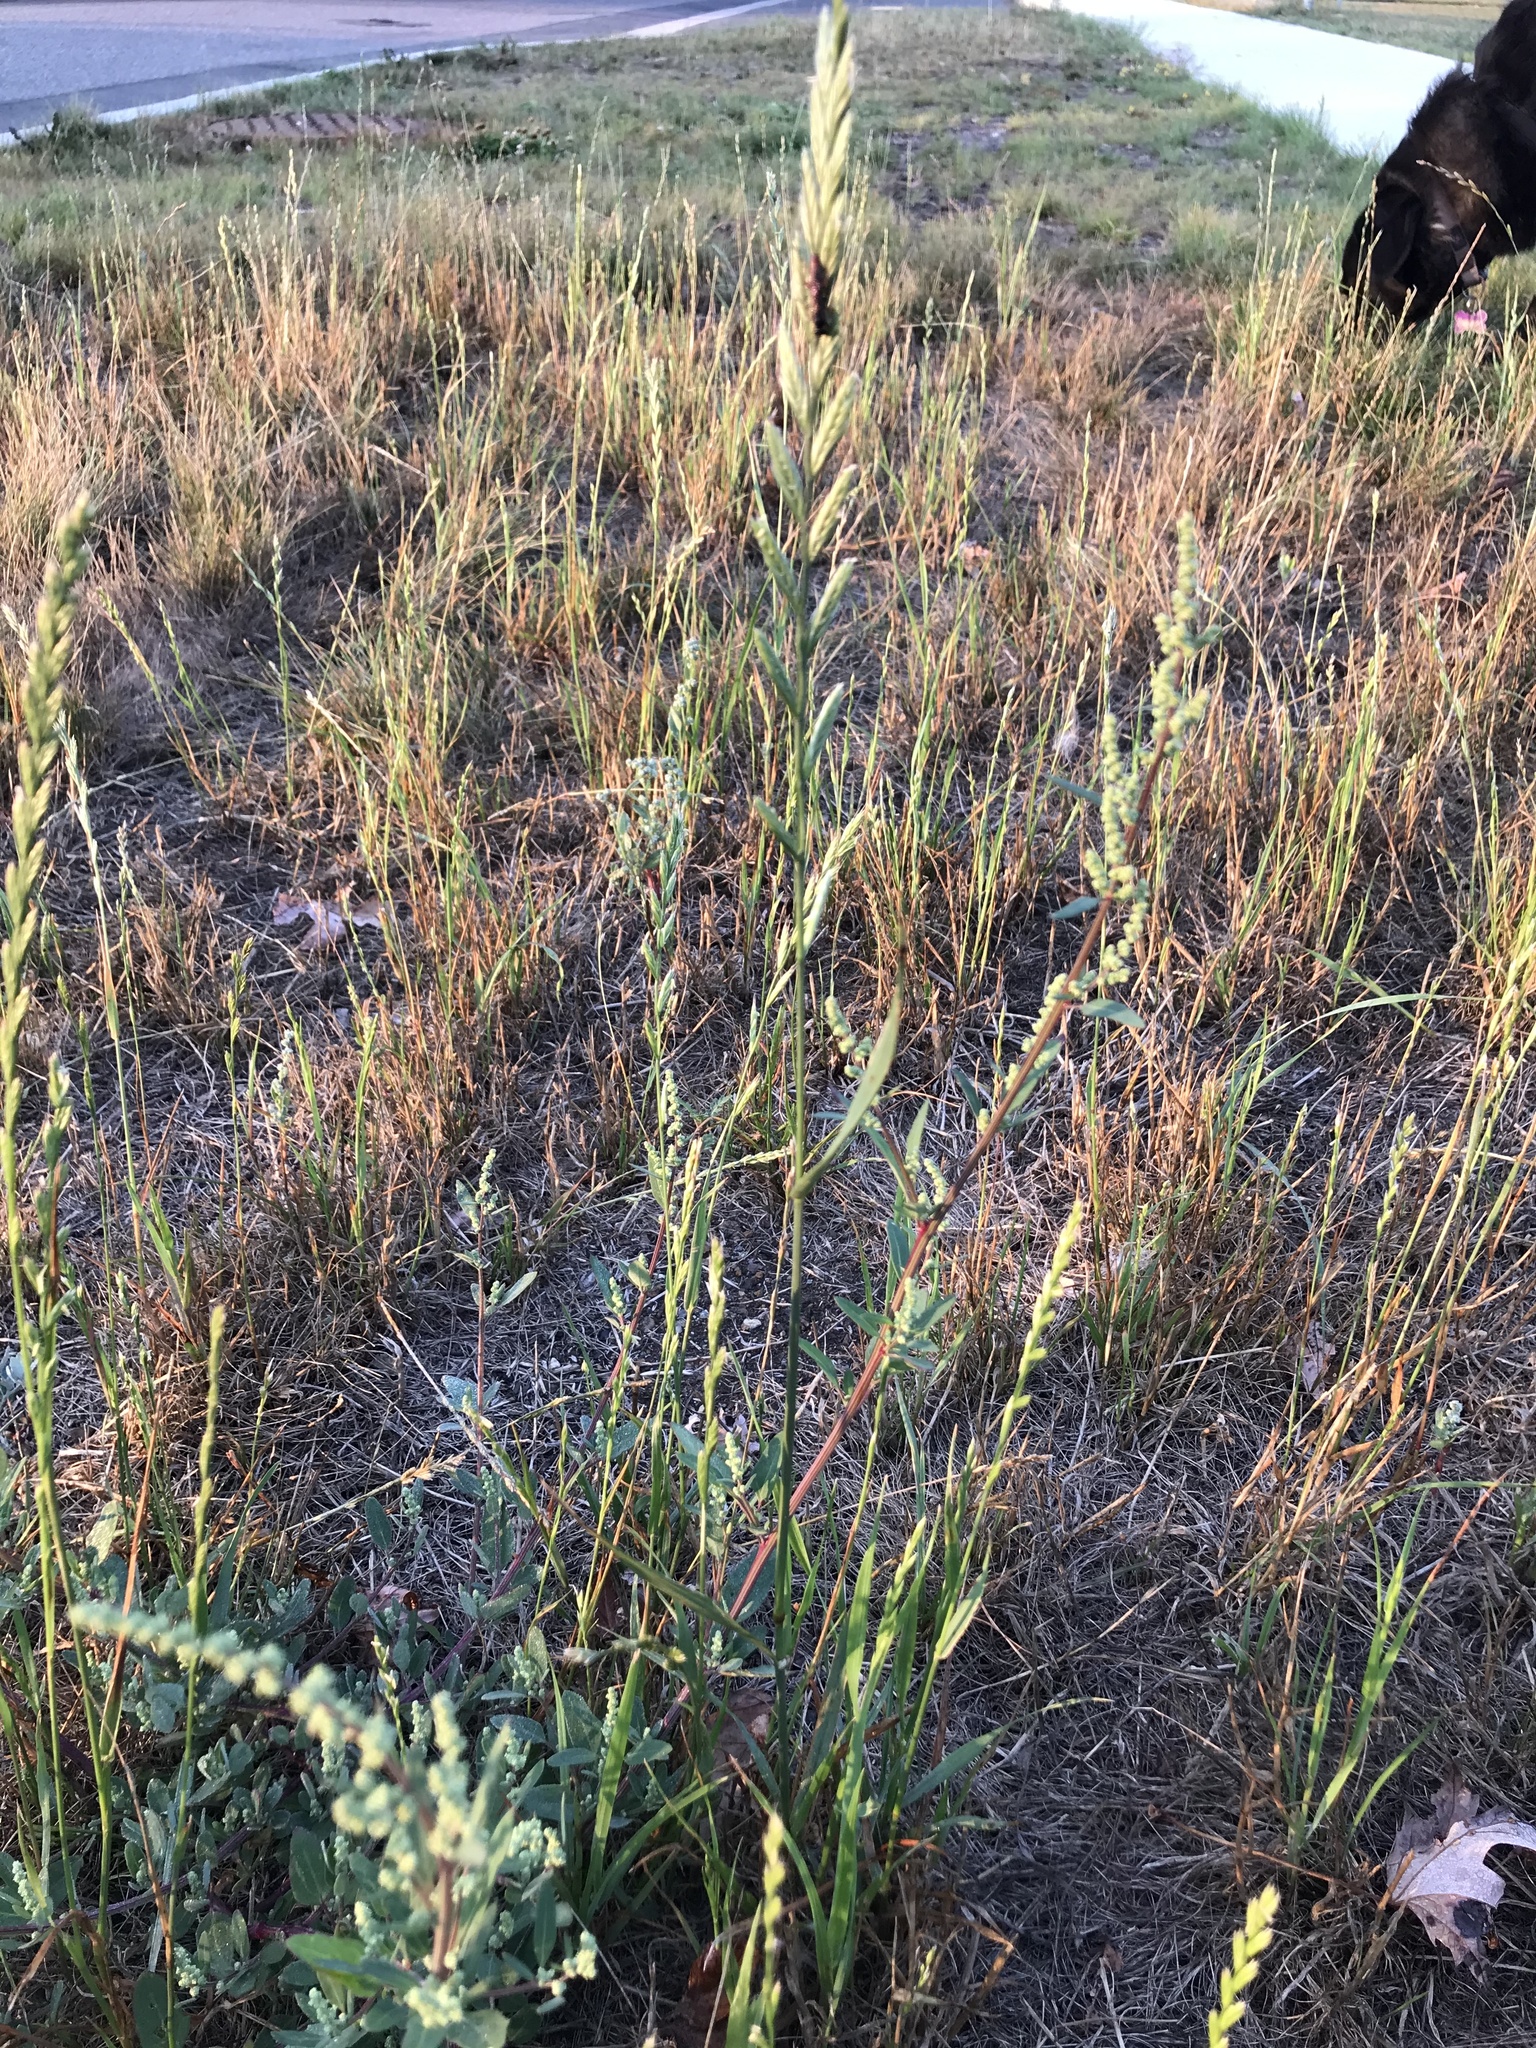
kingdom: Plantae
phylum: Tracheophyta
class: Liliopsida
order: Poales
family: Poaceae
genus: Lolium
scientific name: Lolium perenne
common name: Perennial ryegrass
